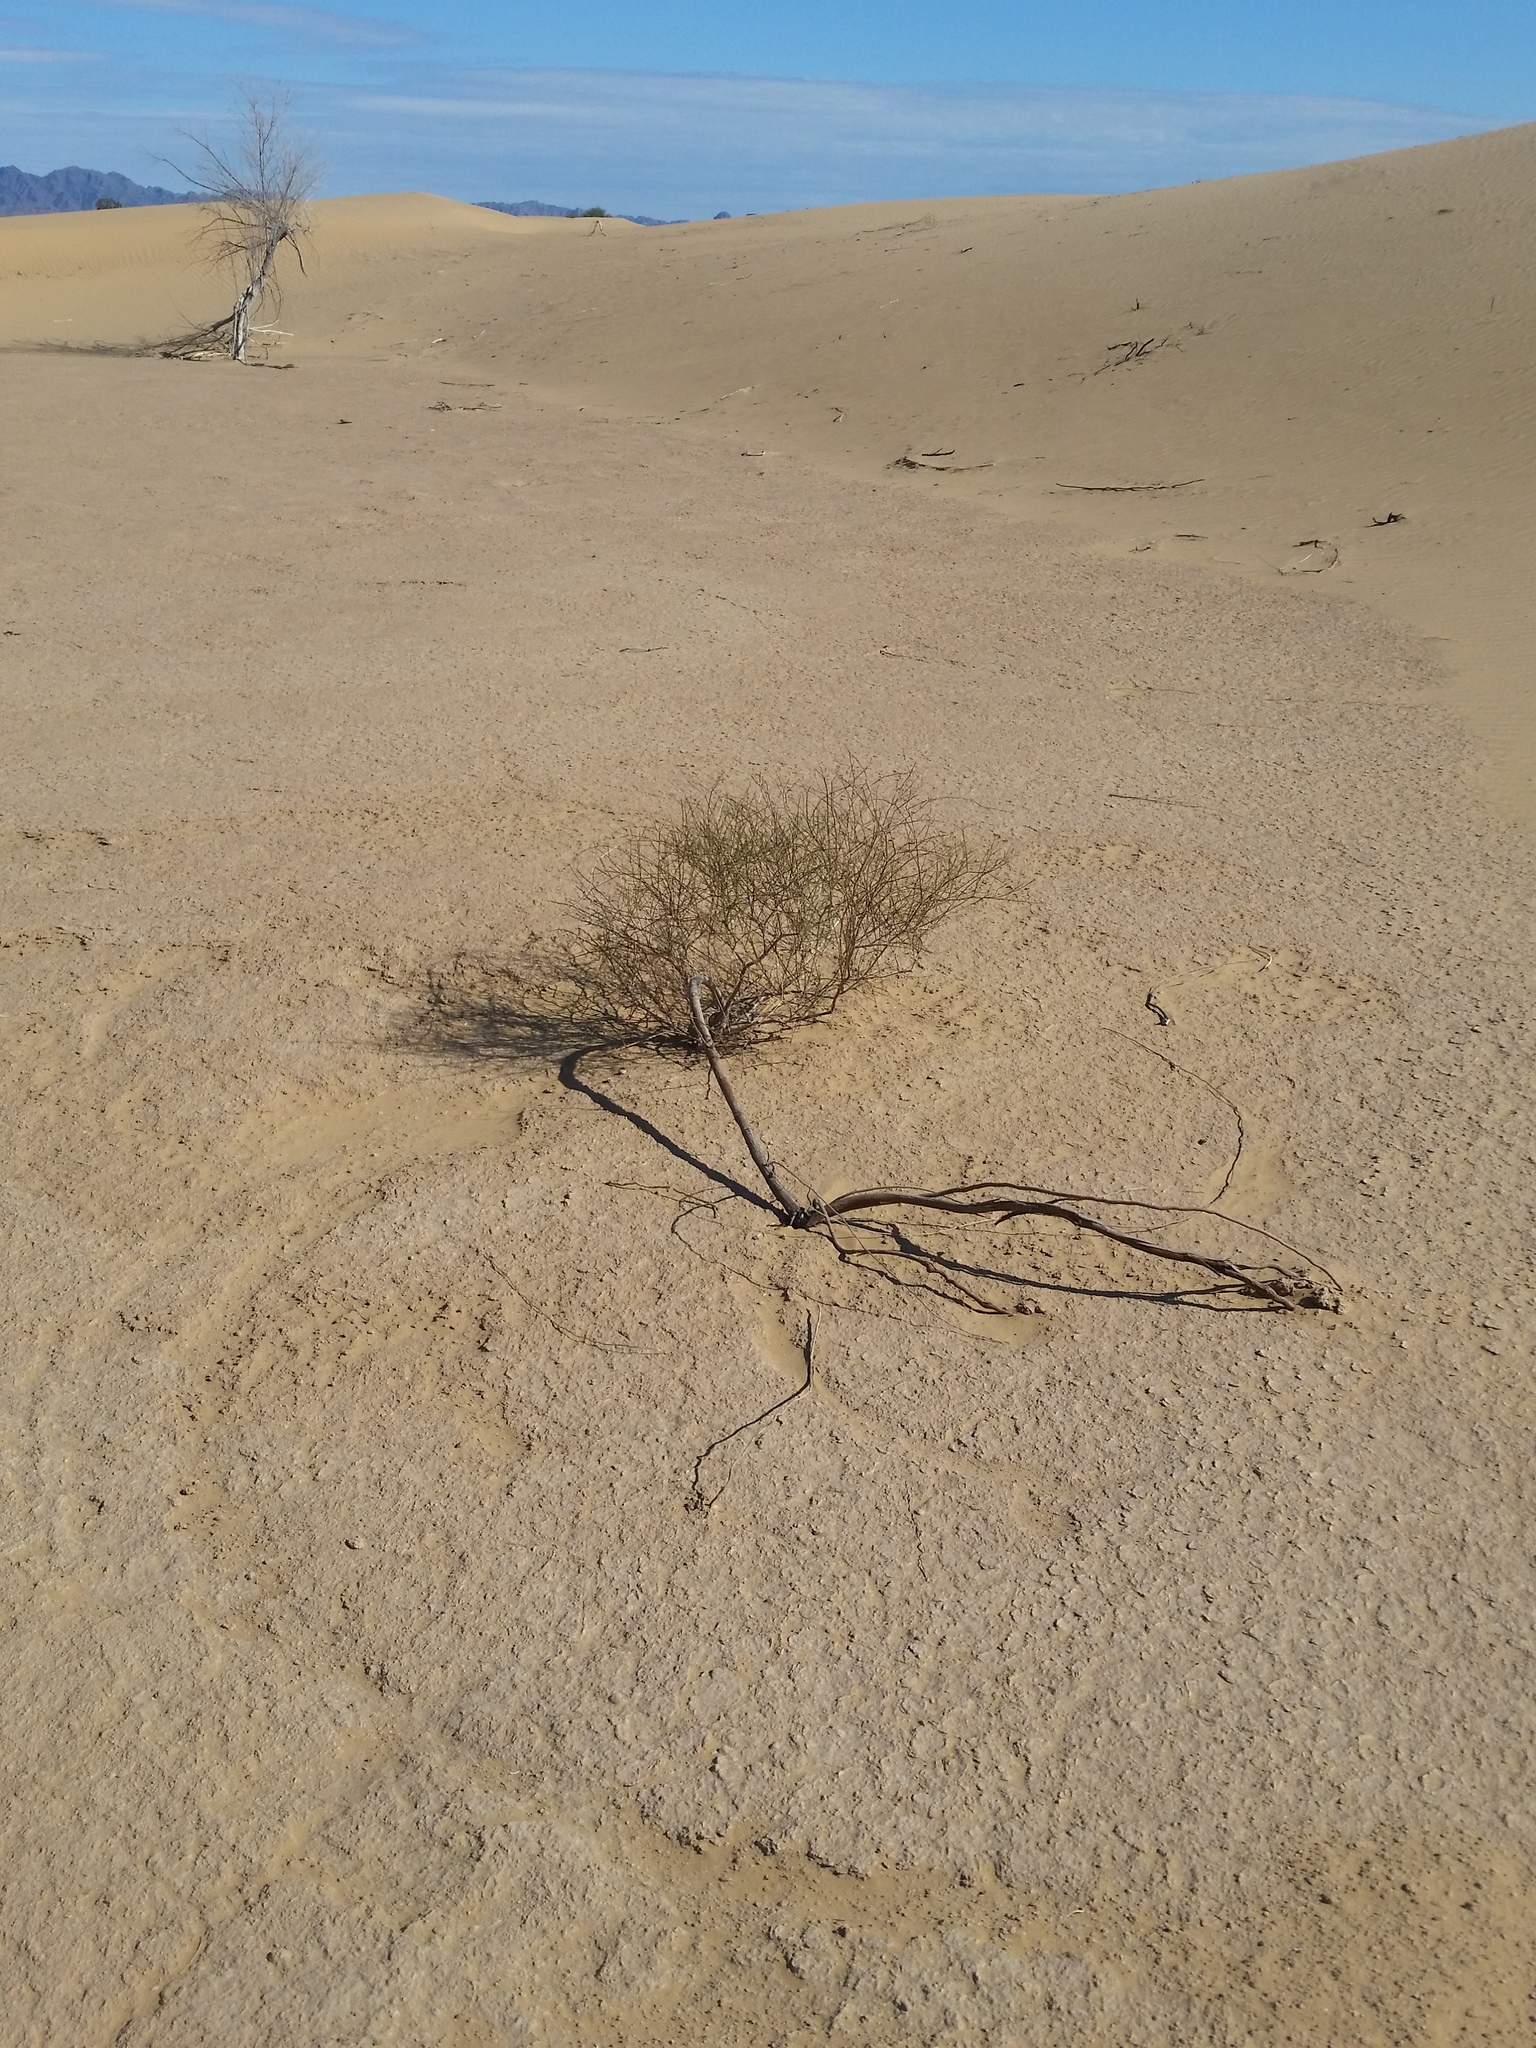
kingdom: Plantae
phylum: Tracheophyta
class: Magnoliopsida
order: Caryophyllales
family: Polygonaceae
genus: Eriogonum
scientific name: Eriogonum deserticola
